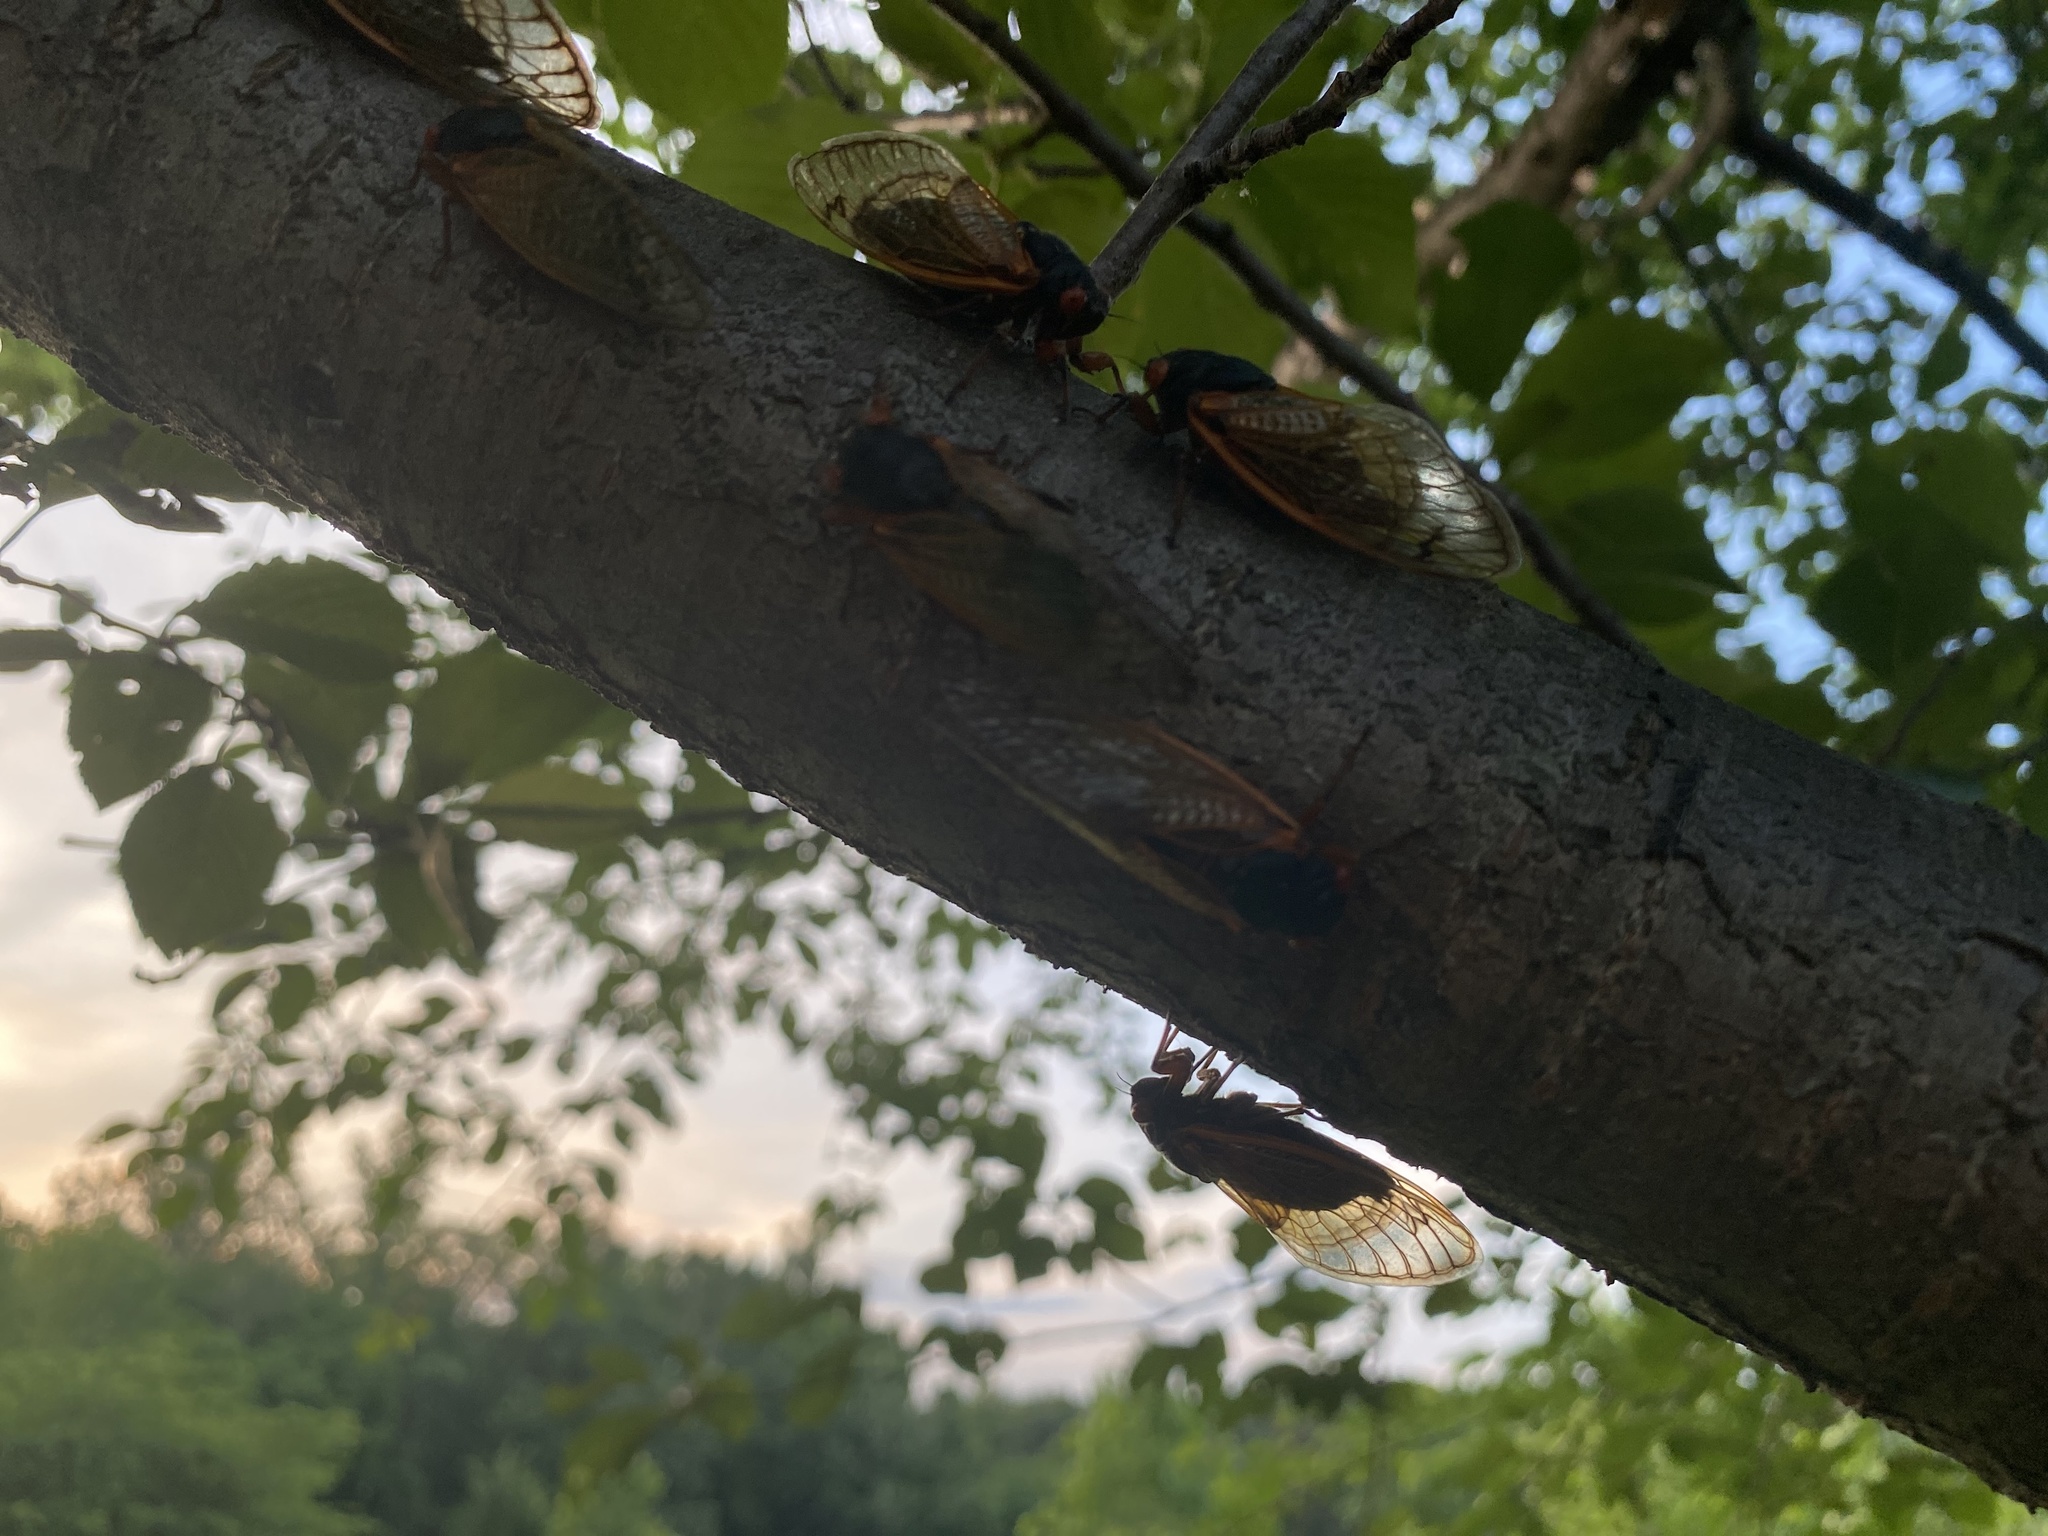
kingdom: Animalia
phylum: Arthropoda
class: Insecta
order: Hemiptera
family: Cicadidae
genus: Magicicada
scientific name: Magicicada
